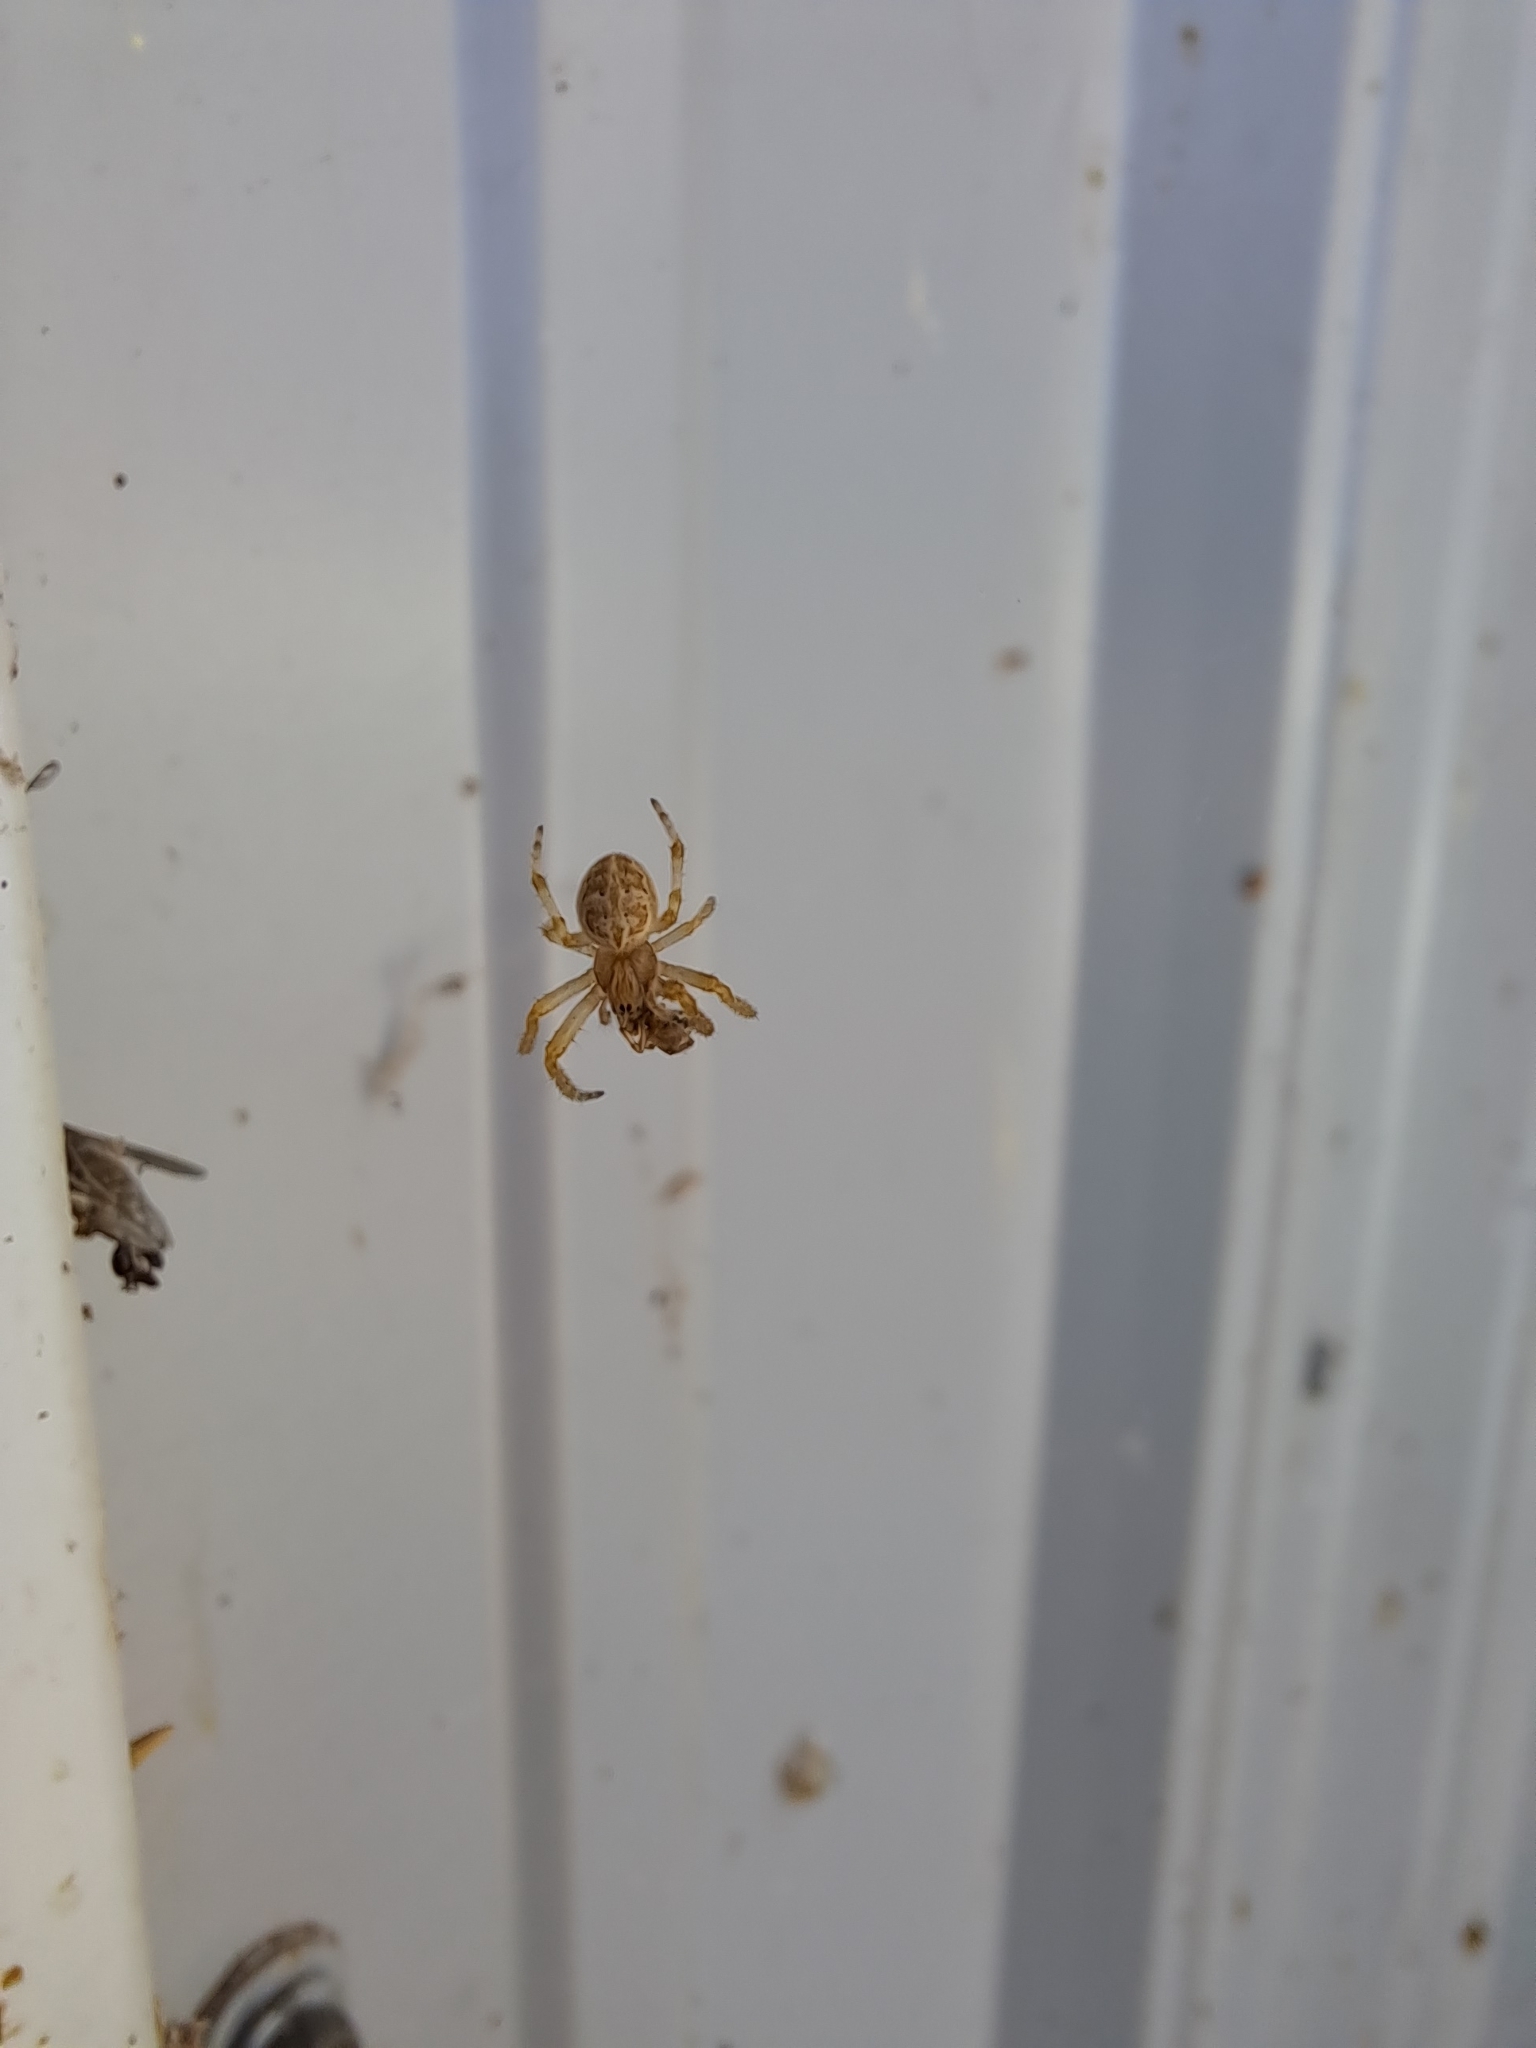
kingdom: Animalia
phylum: Arthropoda
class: Arachnida
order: Araneae
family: Araneidae
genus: Larinioides
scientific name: Larinioides sclopetarius
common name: Bridge orbweaver
